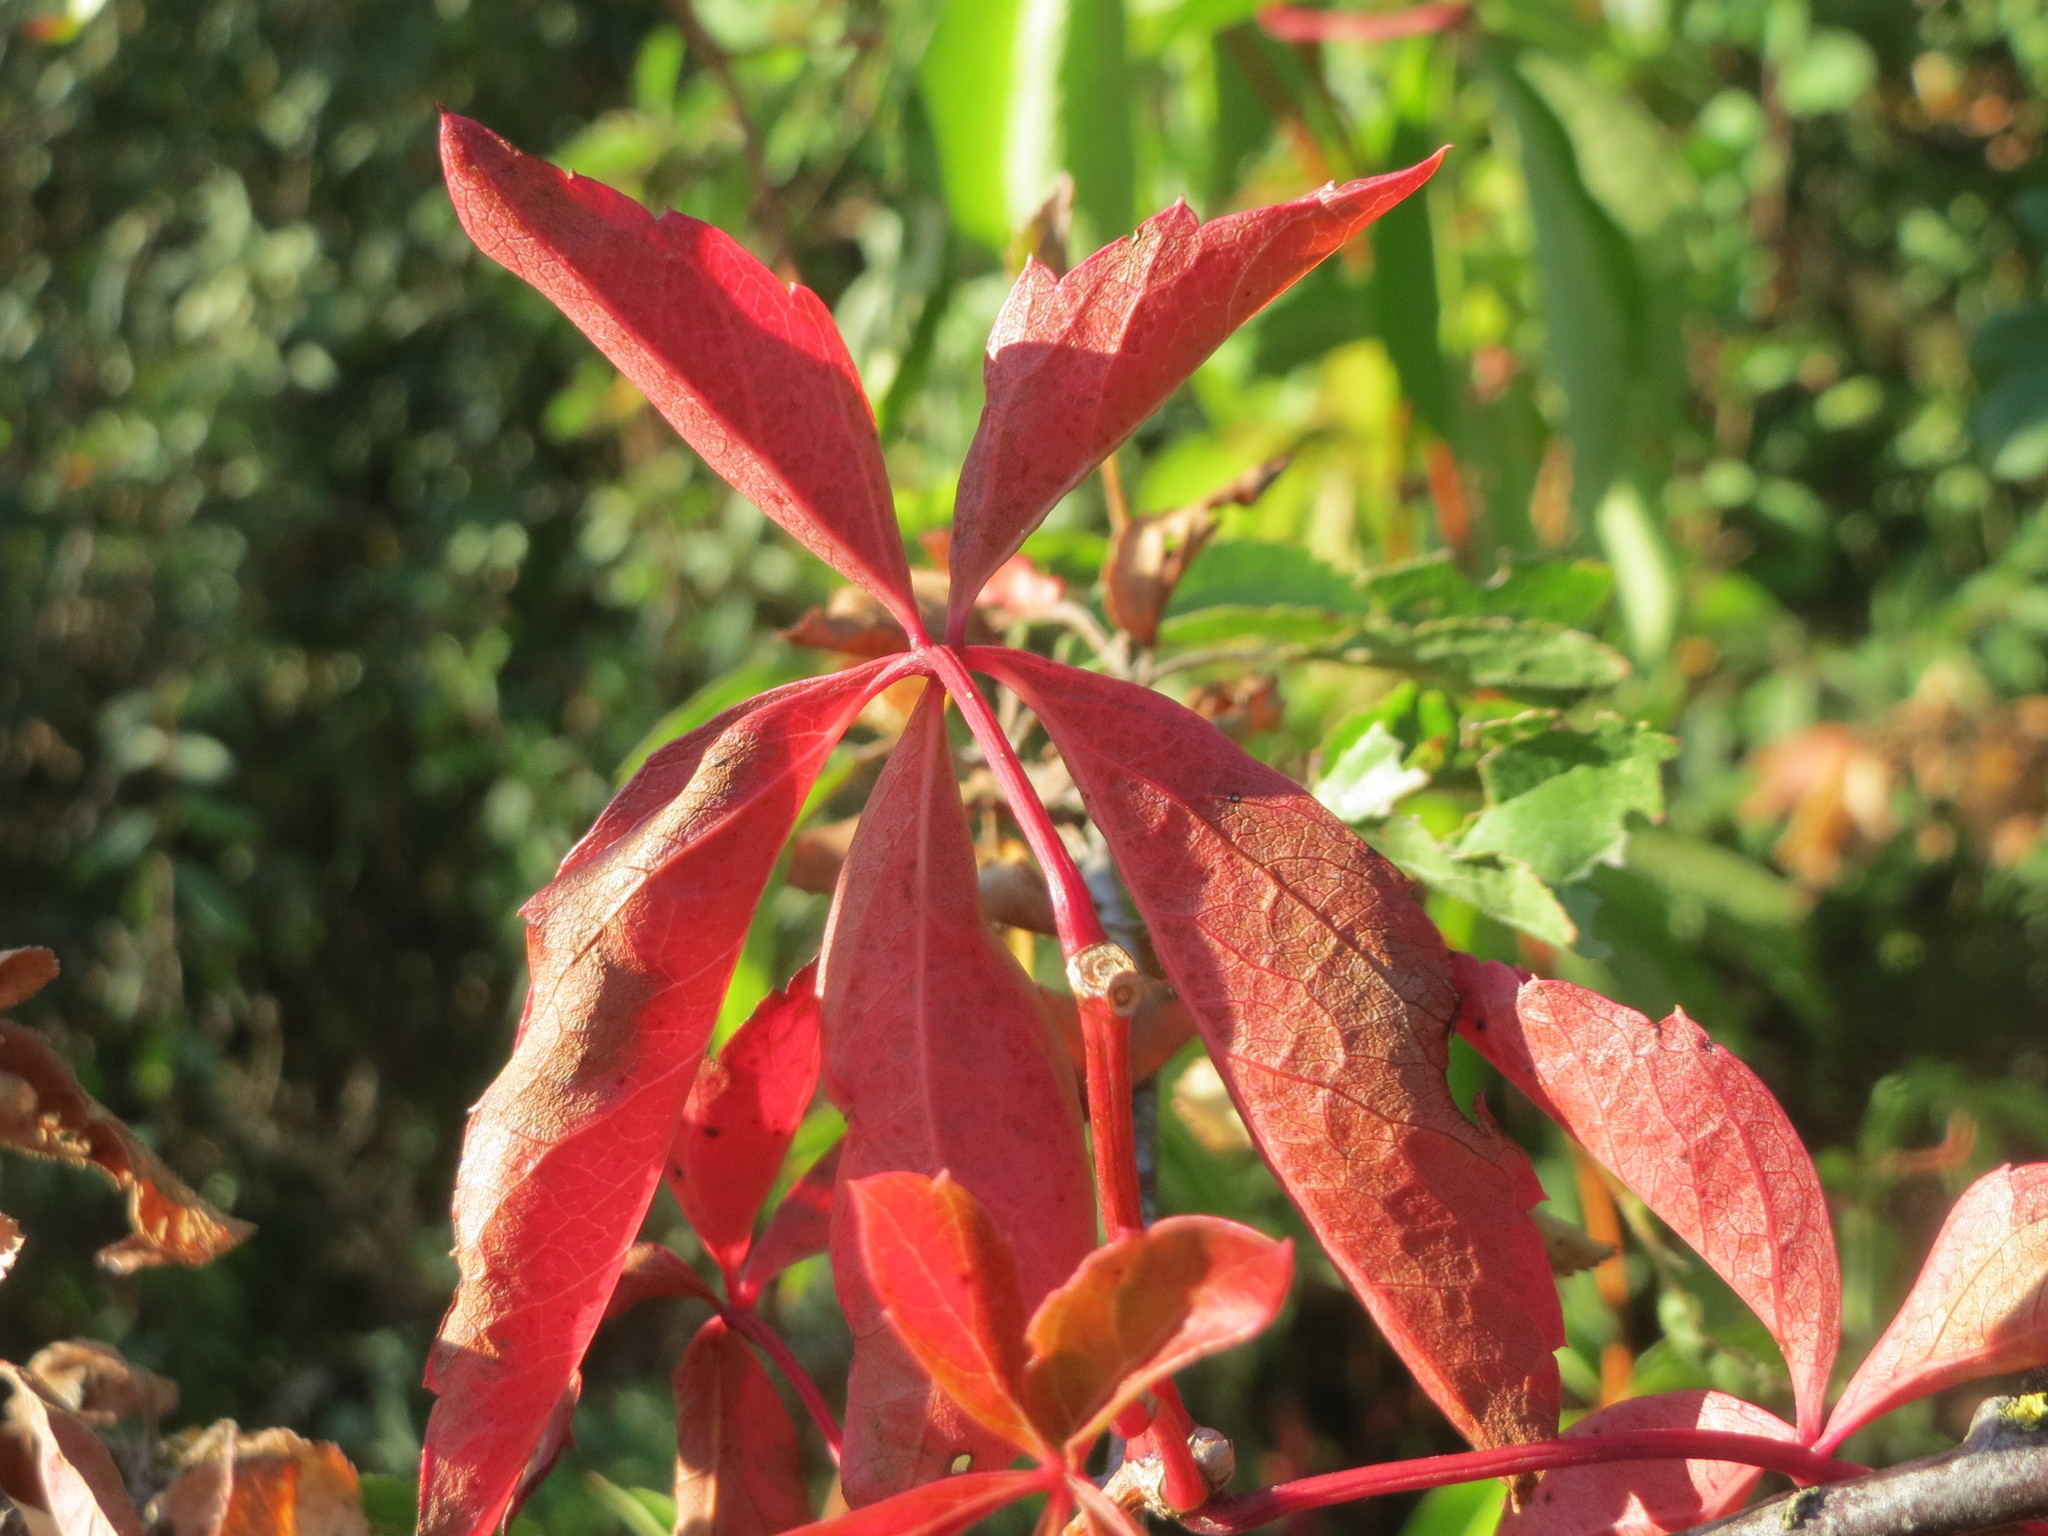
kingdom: Plantae
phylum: Tracheophyta
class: Magnoliopsida
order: Vitales
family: Vitaceae
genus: Parthenocissus
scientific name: Parthenocissus quinquefolia
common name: Virginia-creeper
